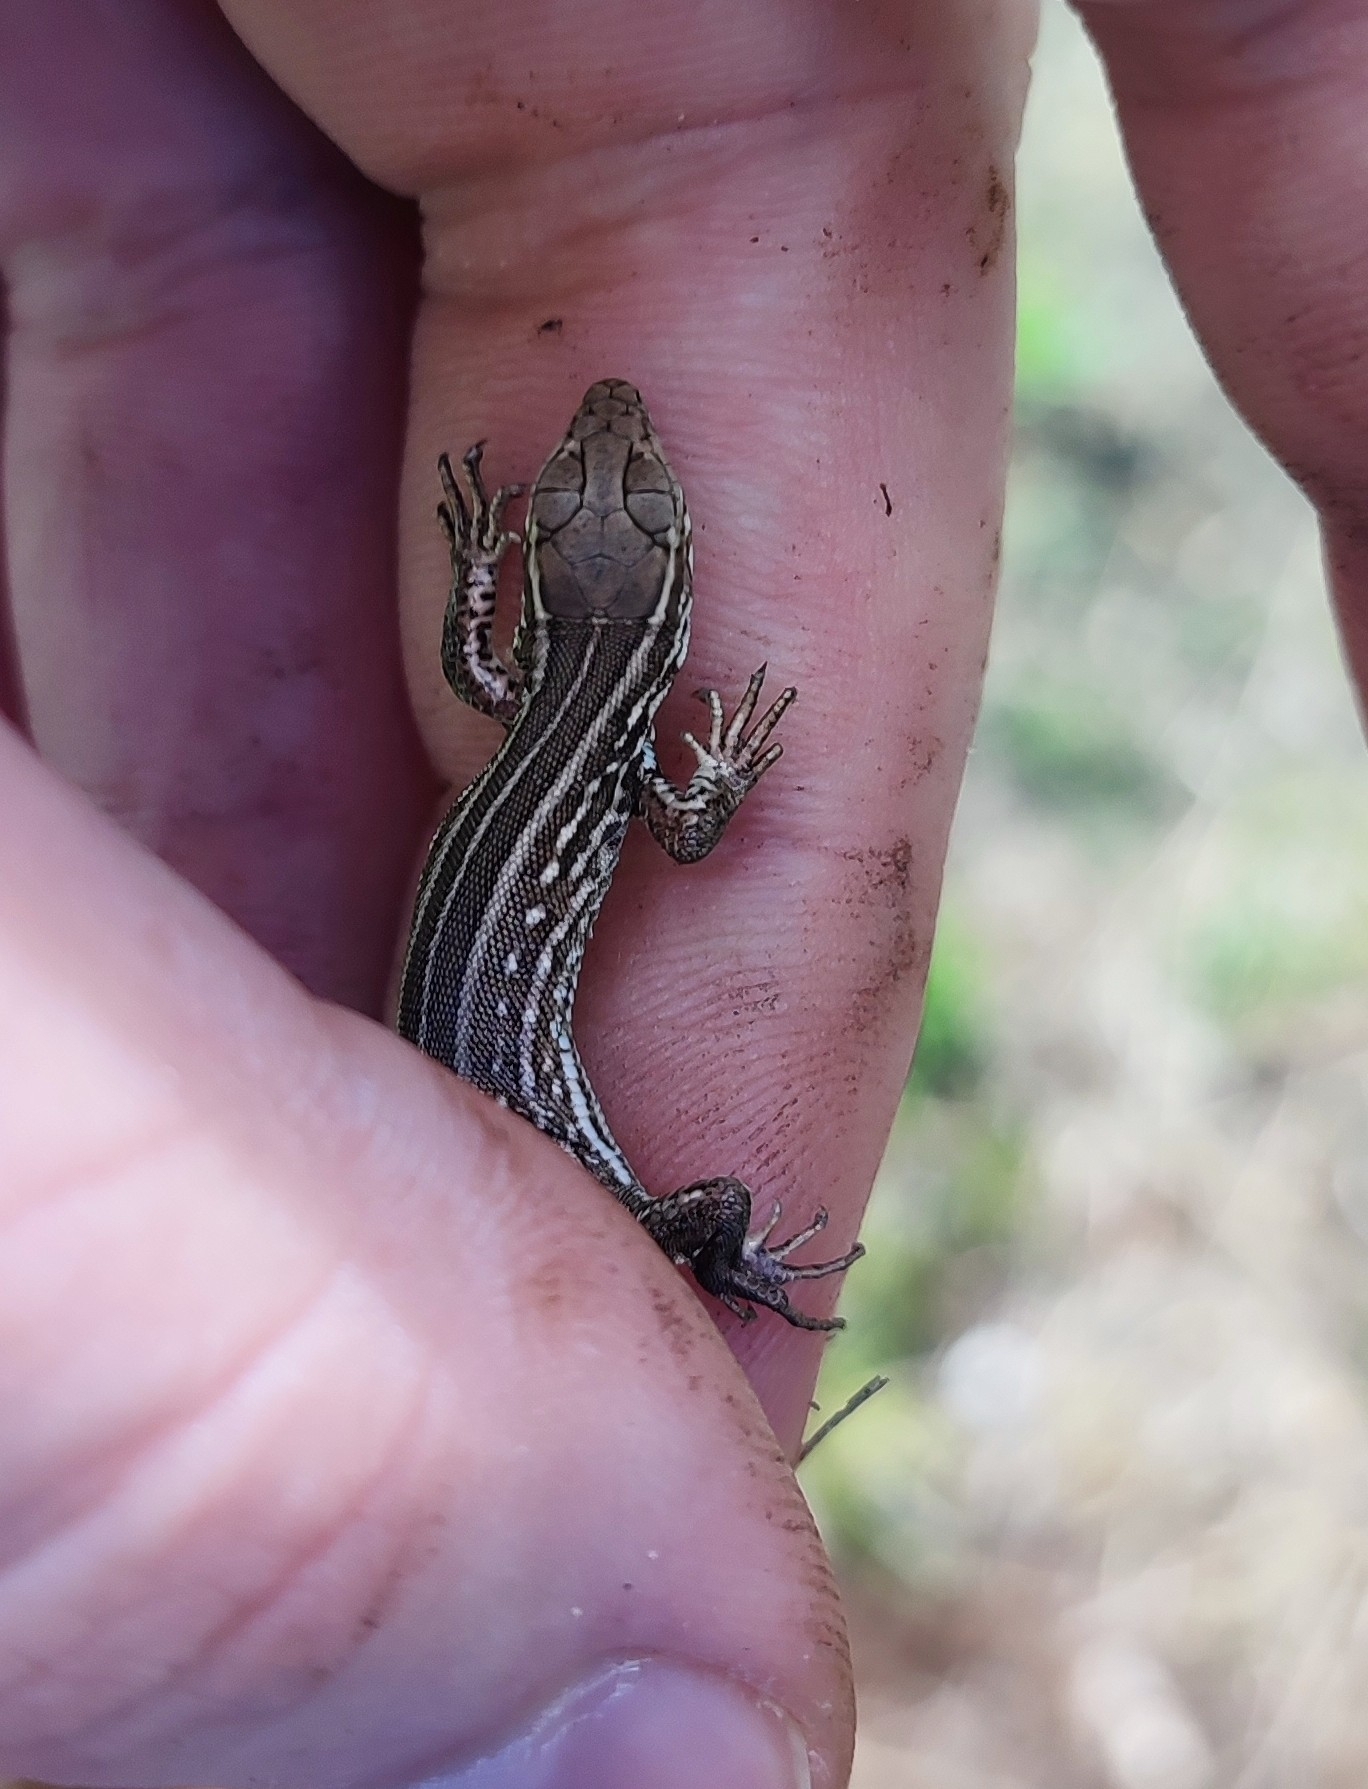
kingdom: Animalia
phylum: Chordata
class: Squamata
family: Lacertidae
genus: Lacerta
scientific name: Lacerta agilis
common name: Sand lizard
